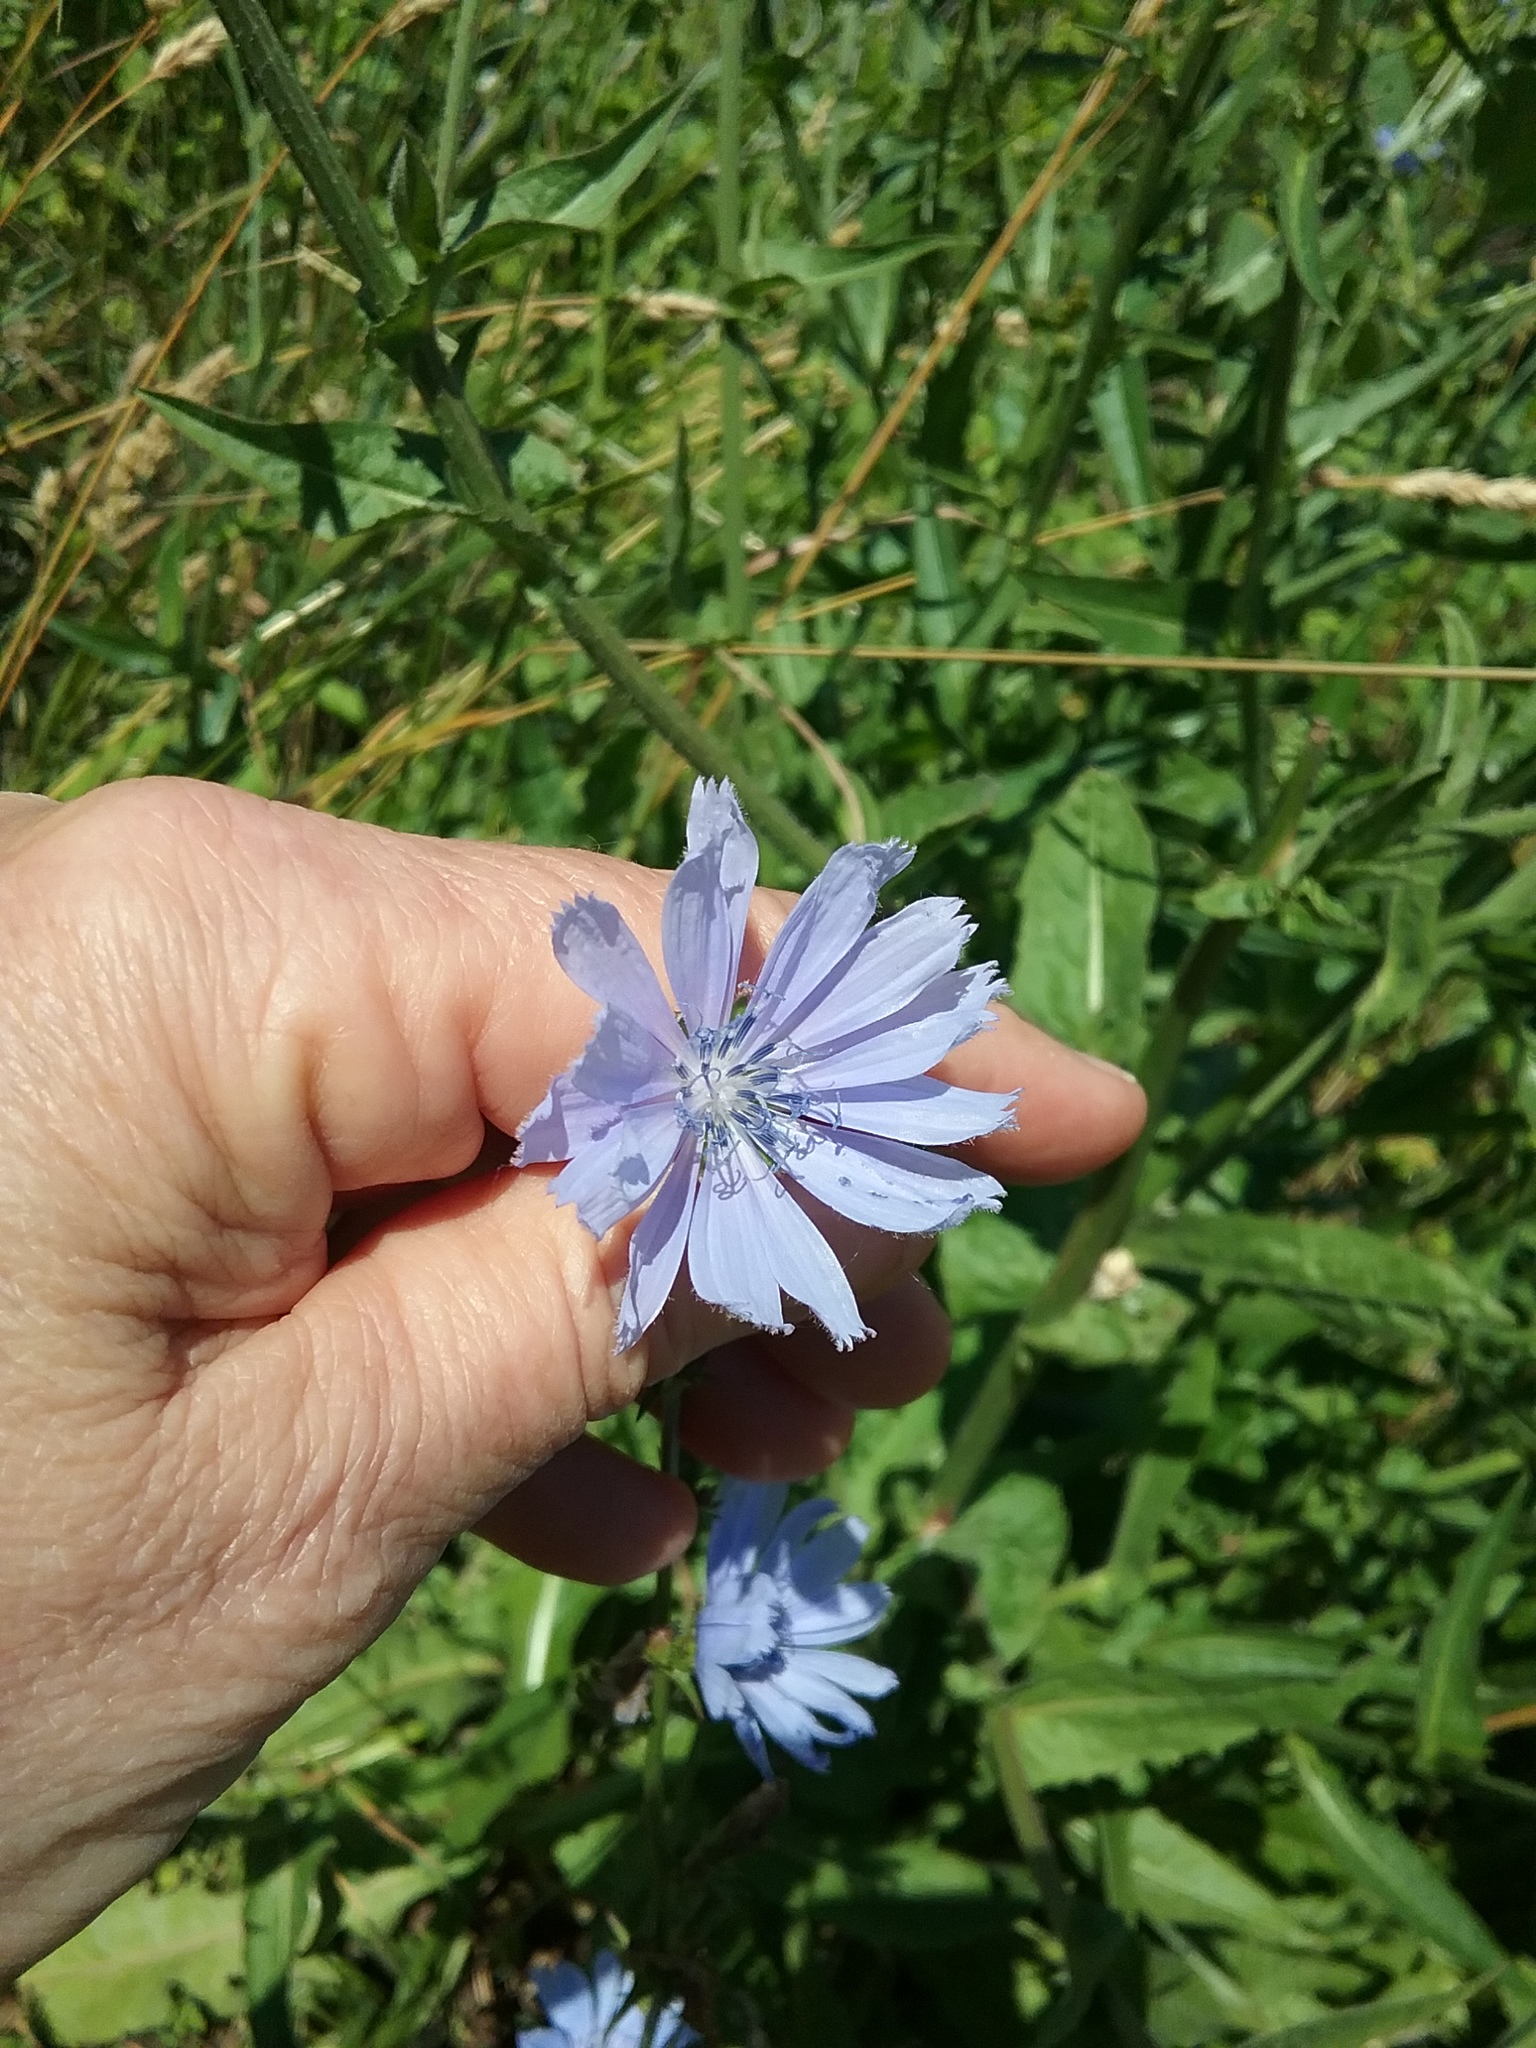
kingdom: Plantae
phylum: Tracheophyta
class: Magnoliopsida
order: Asterales
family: Asteraceae
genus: Cichorium
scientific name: Cichorium intybus
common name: Chicory
